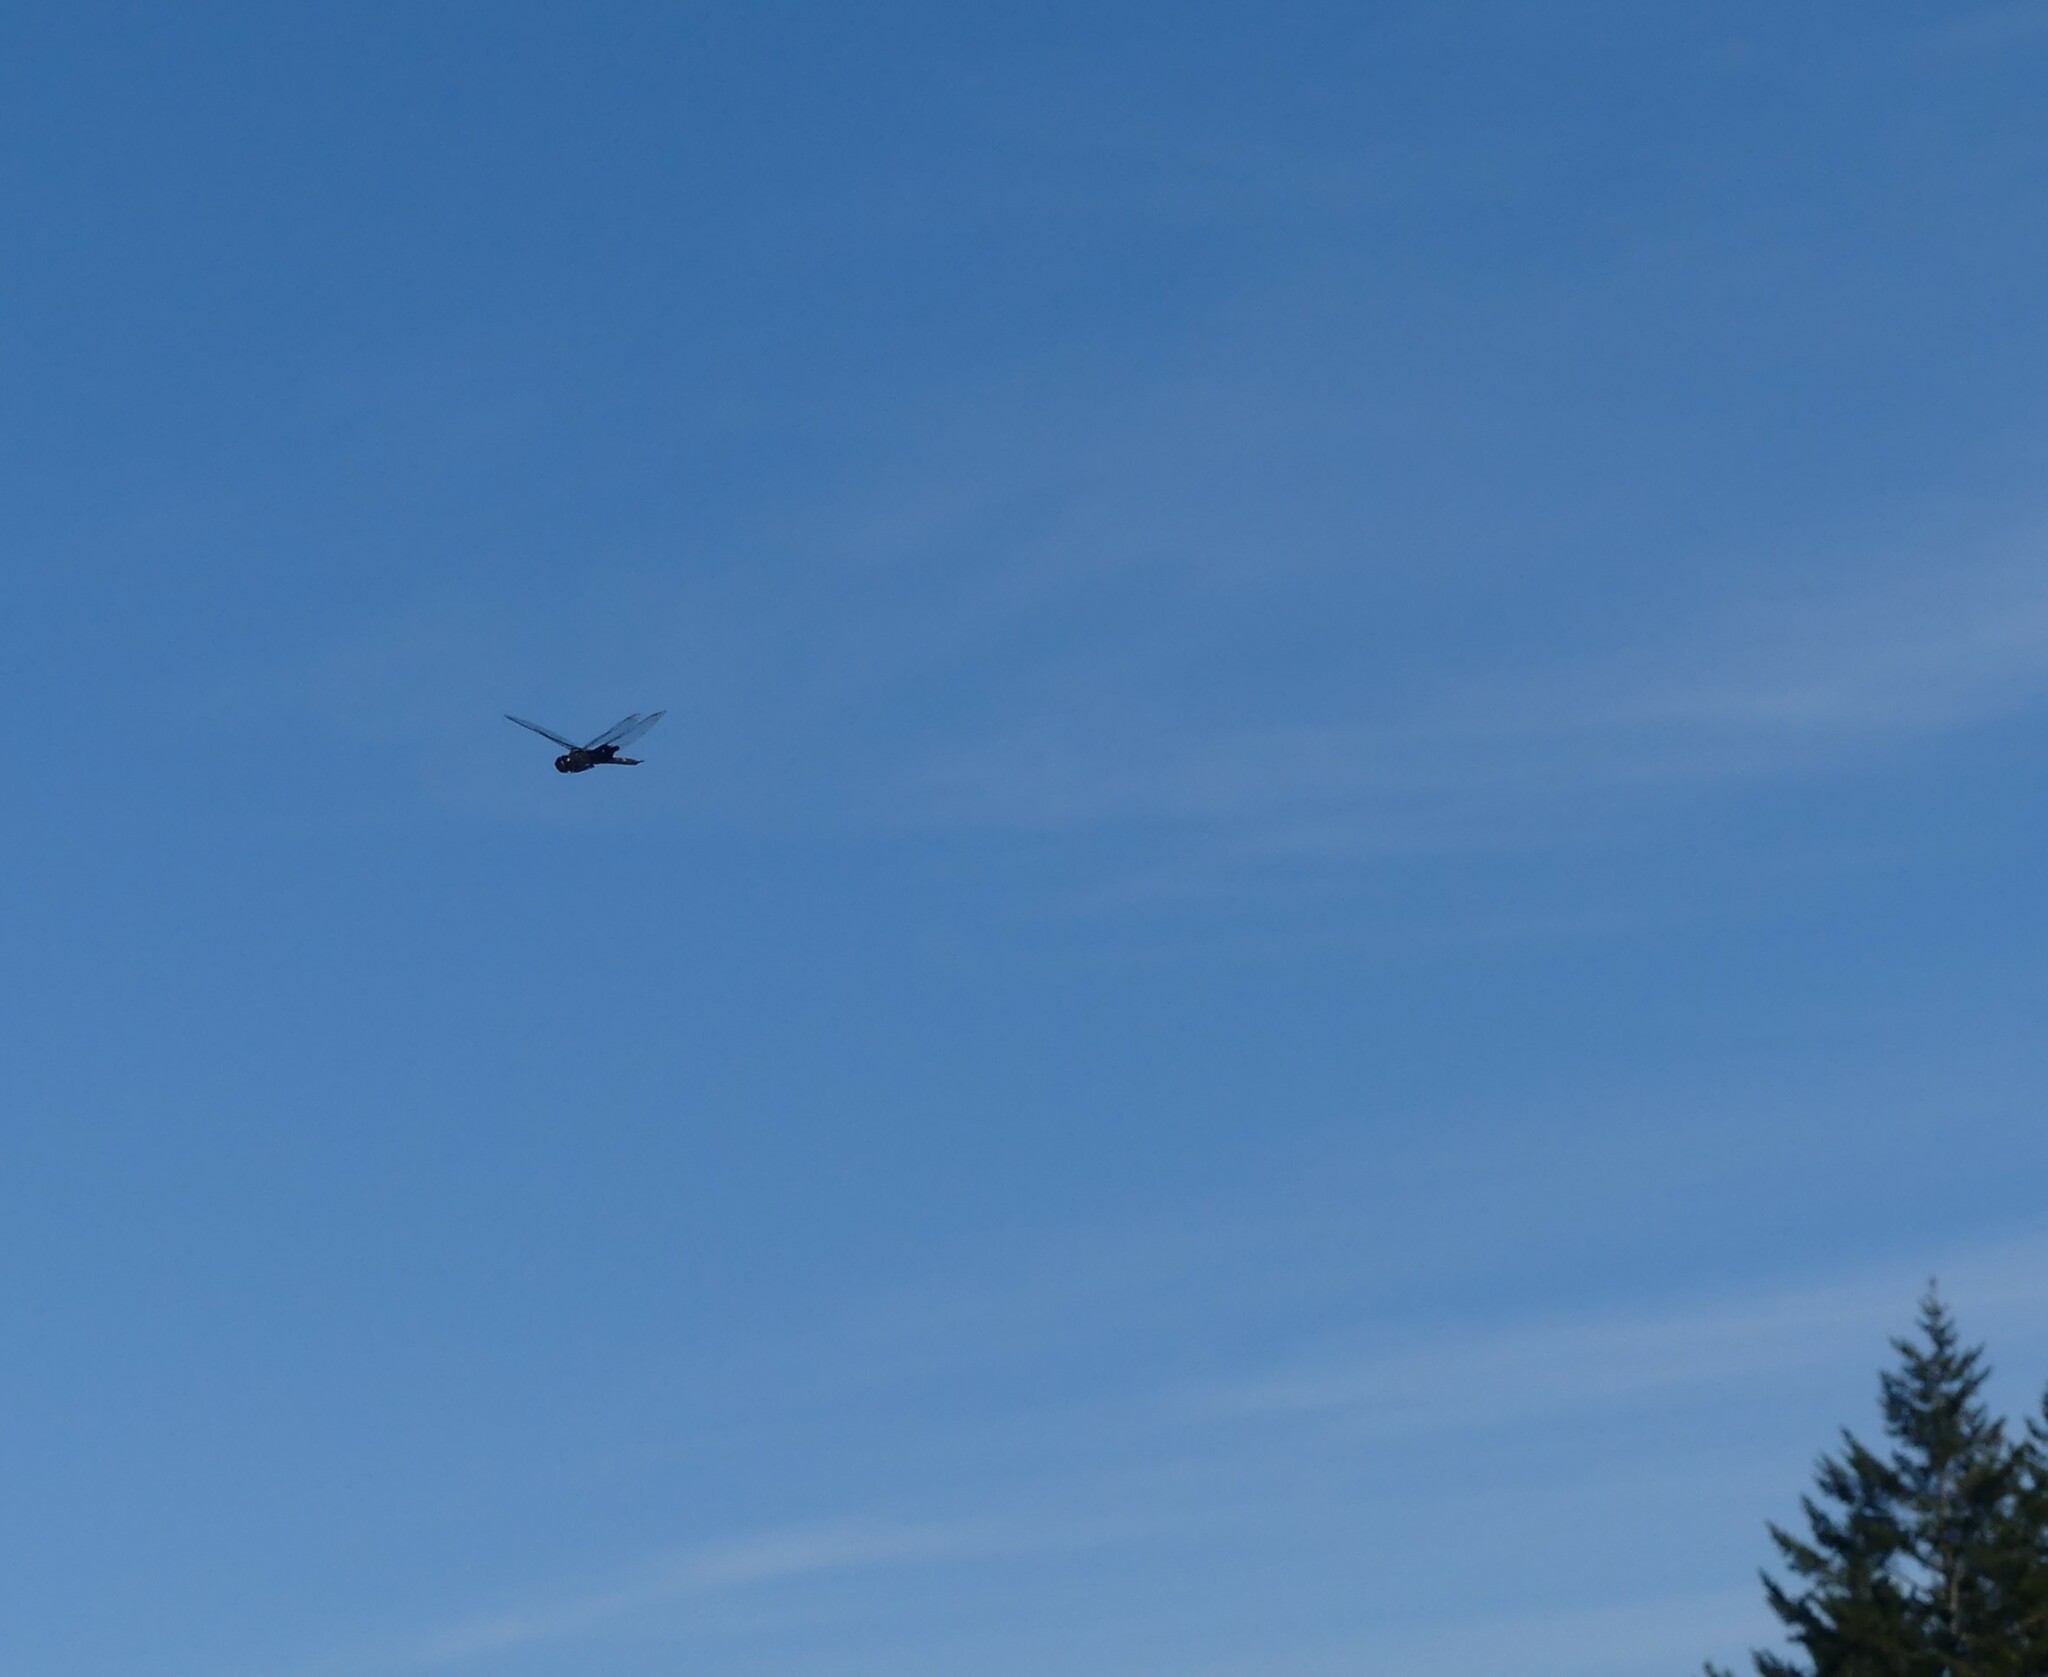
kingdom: Animalia
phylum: Arthropoda
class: Insecta
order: Odonata
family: Libellulidae
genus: Tramea
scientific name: Tramea lacerata
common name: Black saddlebags
